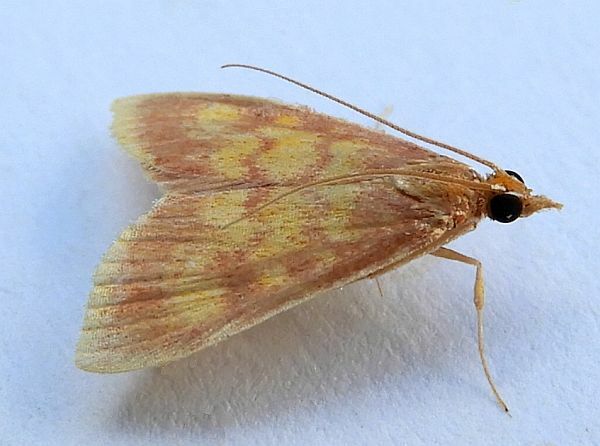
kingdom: Animalia
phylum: Arthropoda
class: Insecta
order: Lepidoptera
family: Crambidae
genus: Pyrausta
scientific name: Pyrausta acrionalis
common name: Mint-loving pyrausta moth
